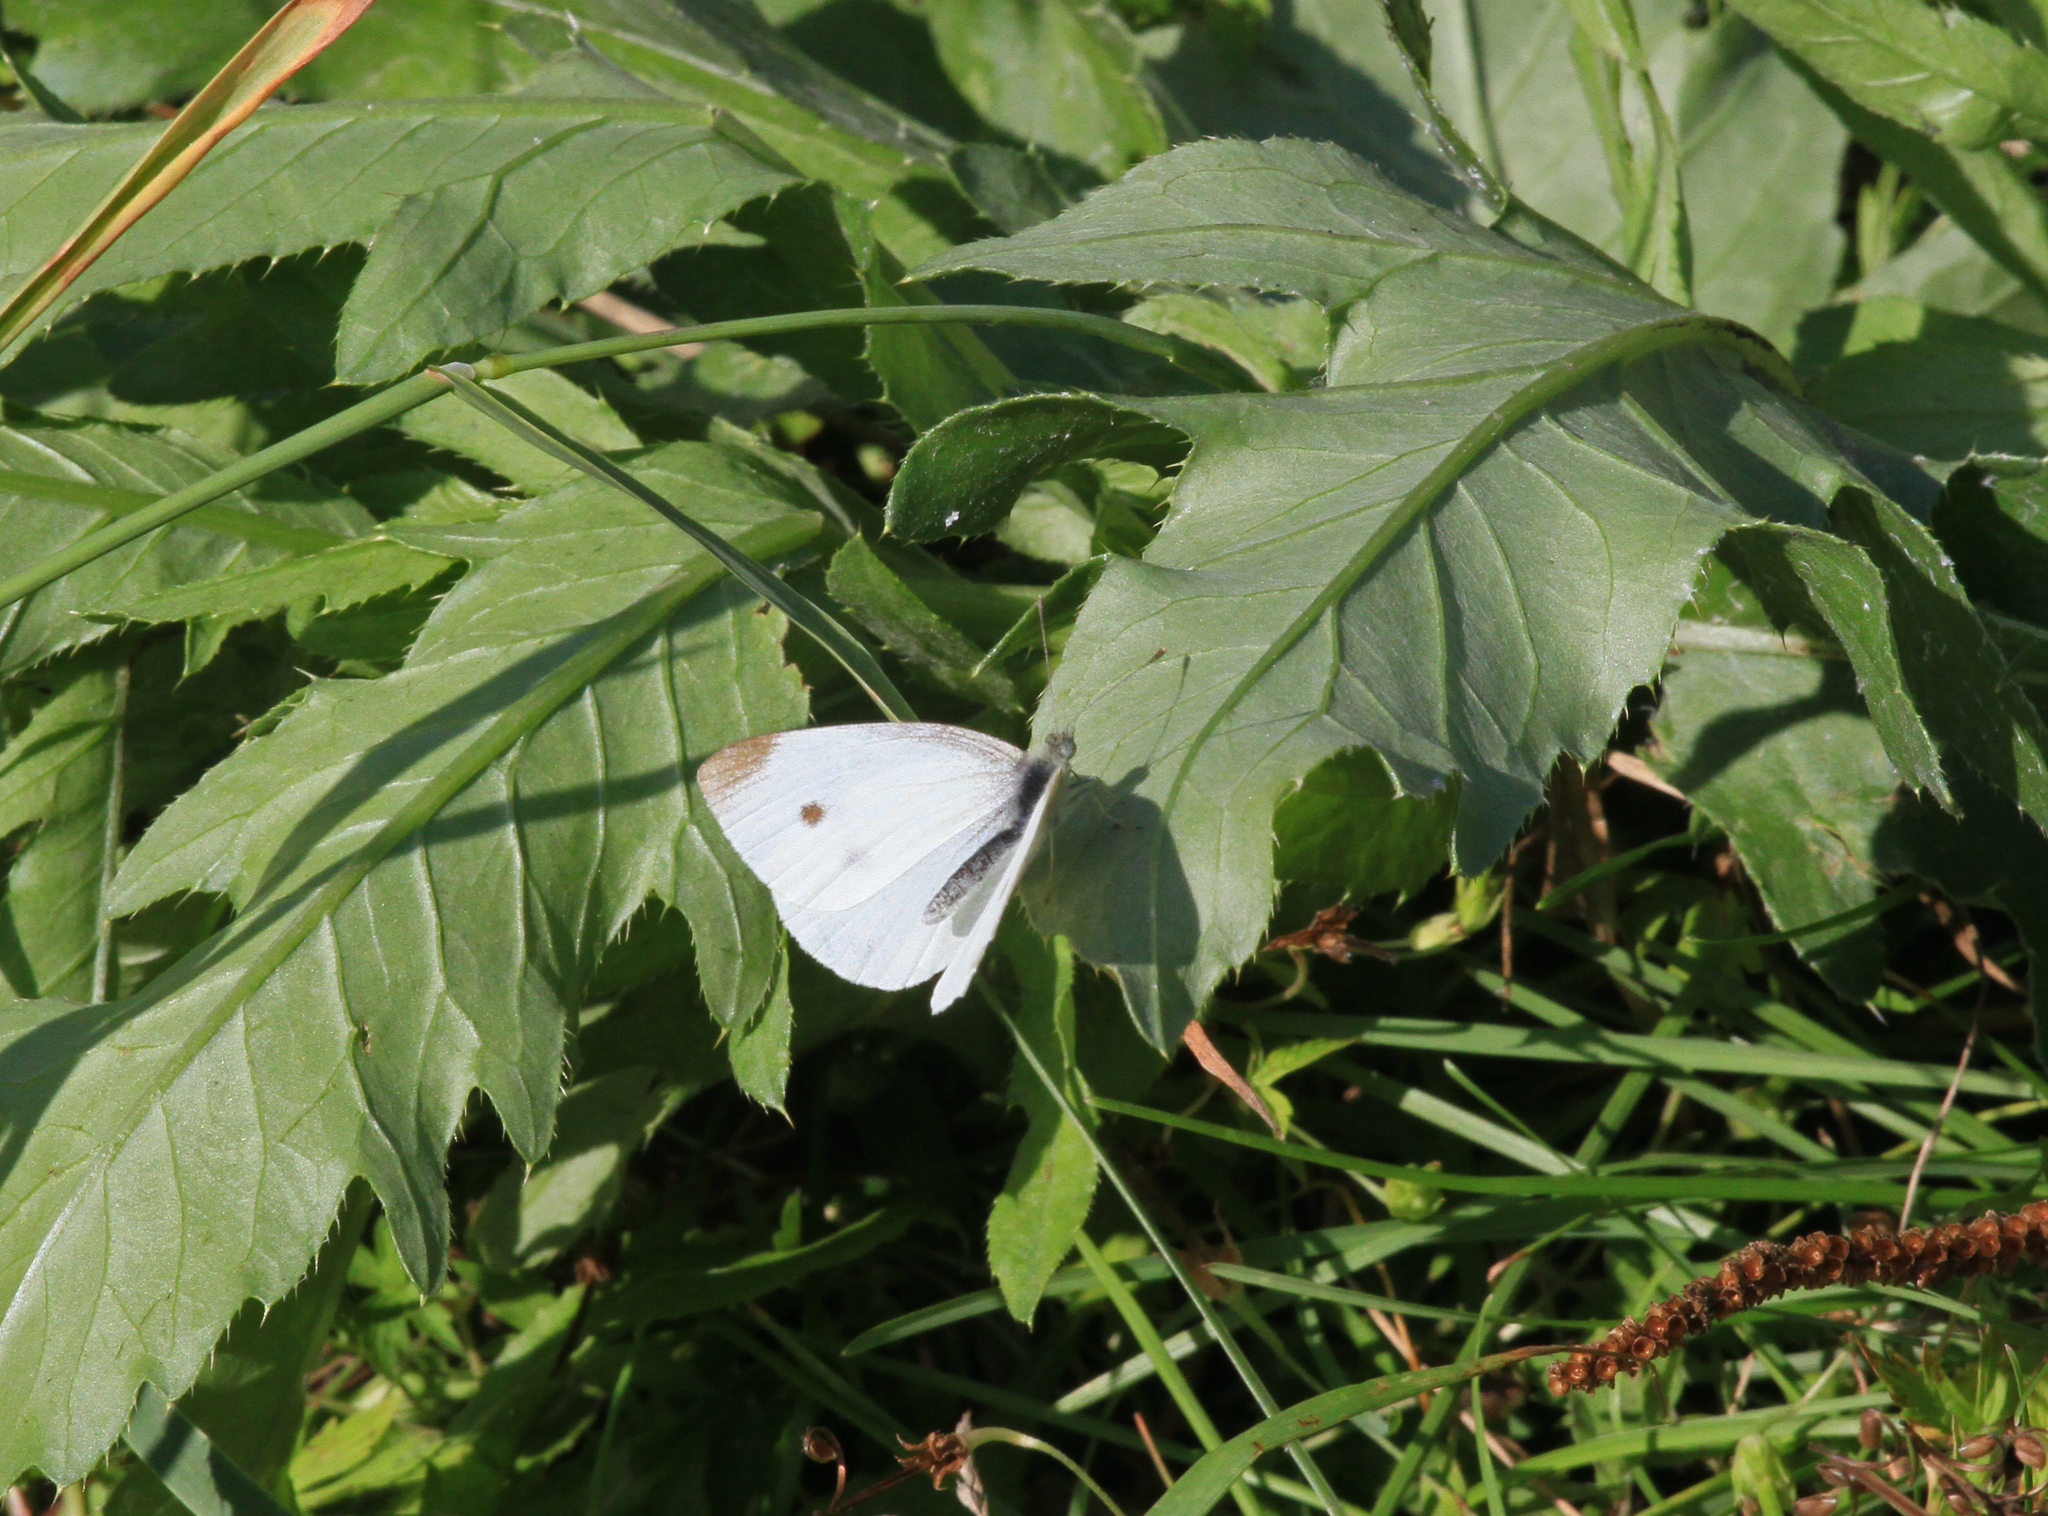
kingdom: Animalia
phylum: Arthropoda
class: Insecta
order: Lepidoptera
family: Pieridae
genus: Pieris
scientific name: Pieris rapae
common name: Small white
